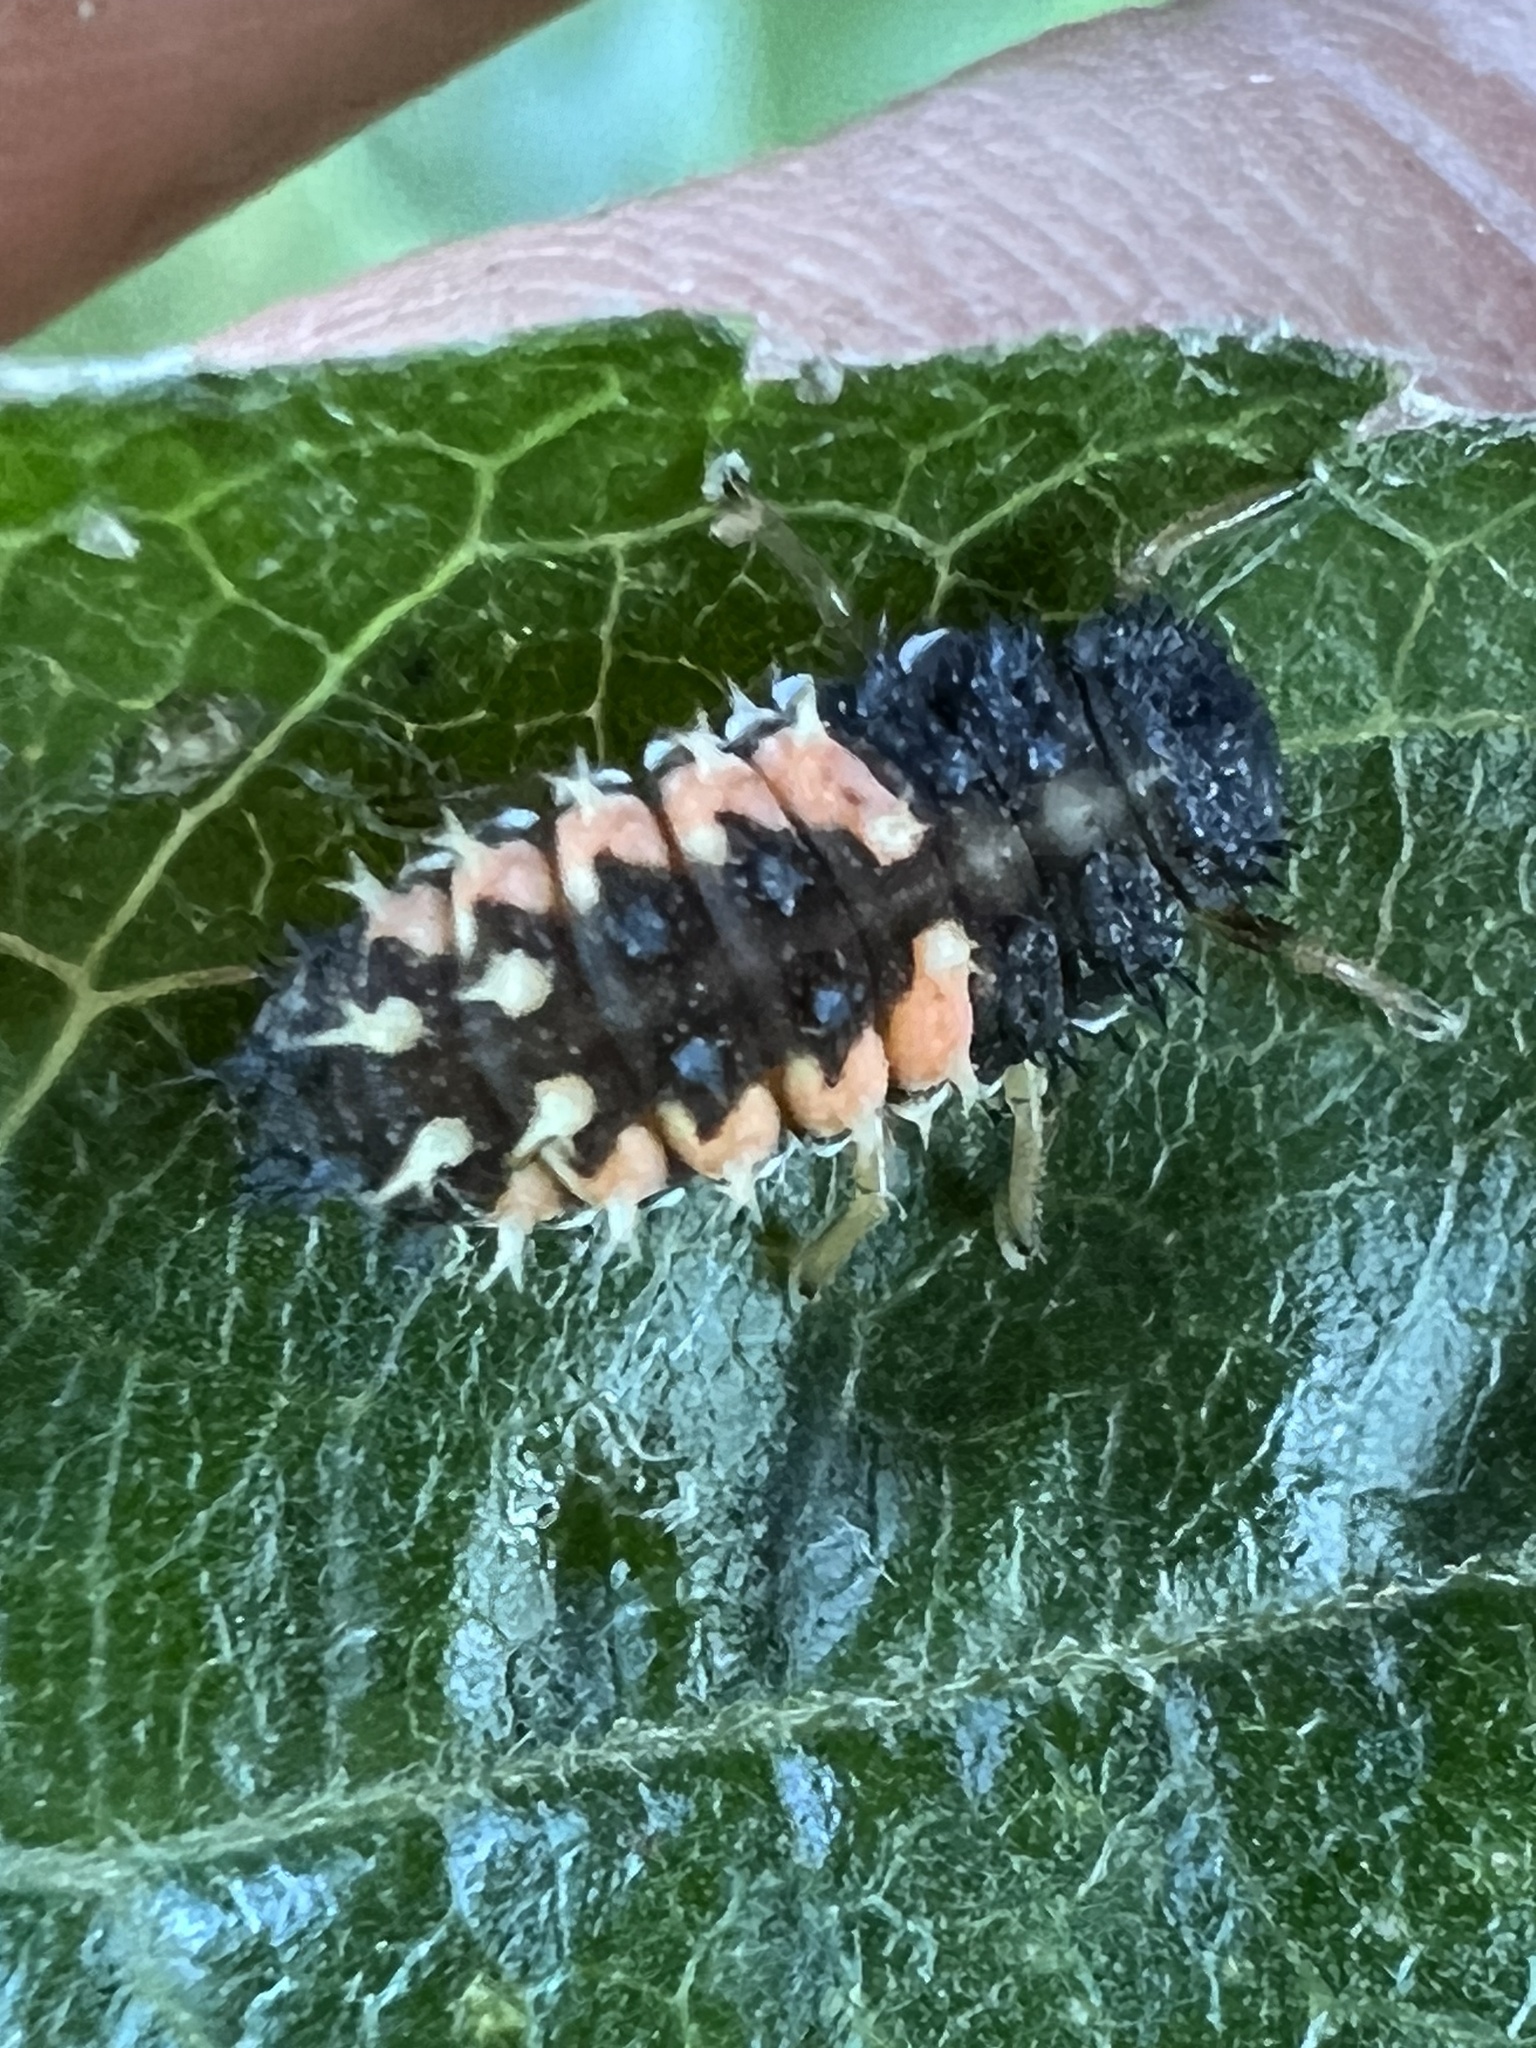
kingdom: Animalia
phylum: Arthropoda
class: Insecta
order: Coleoptera
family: Coccinellidae
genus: Harmonia
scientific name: Harmonia axyridis
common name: Harlequin ladybird
